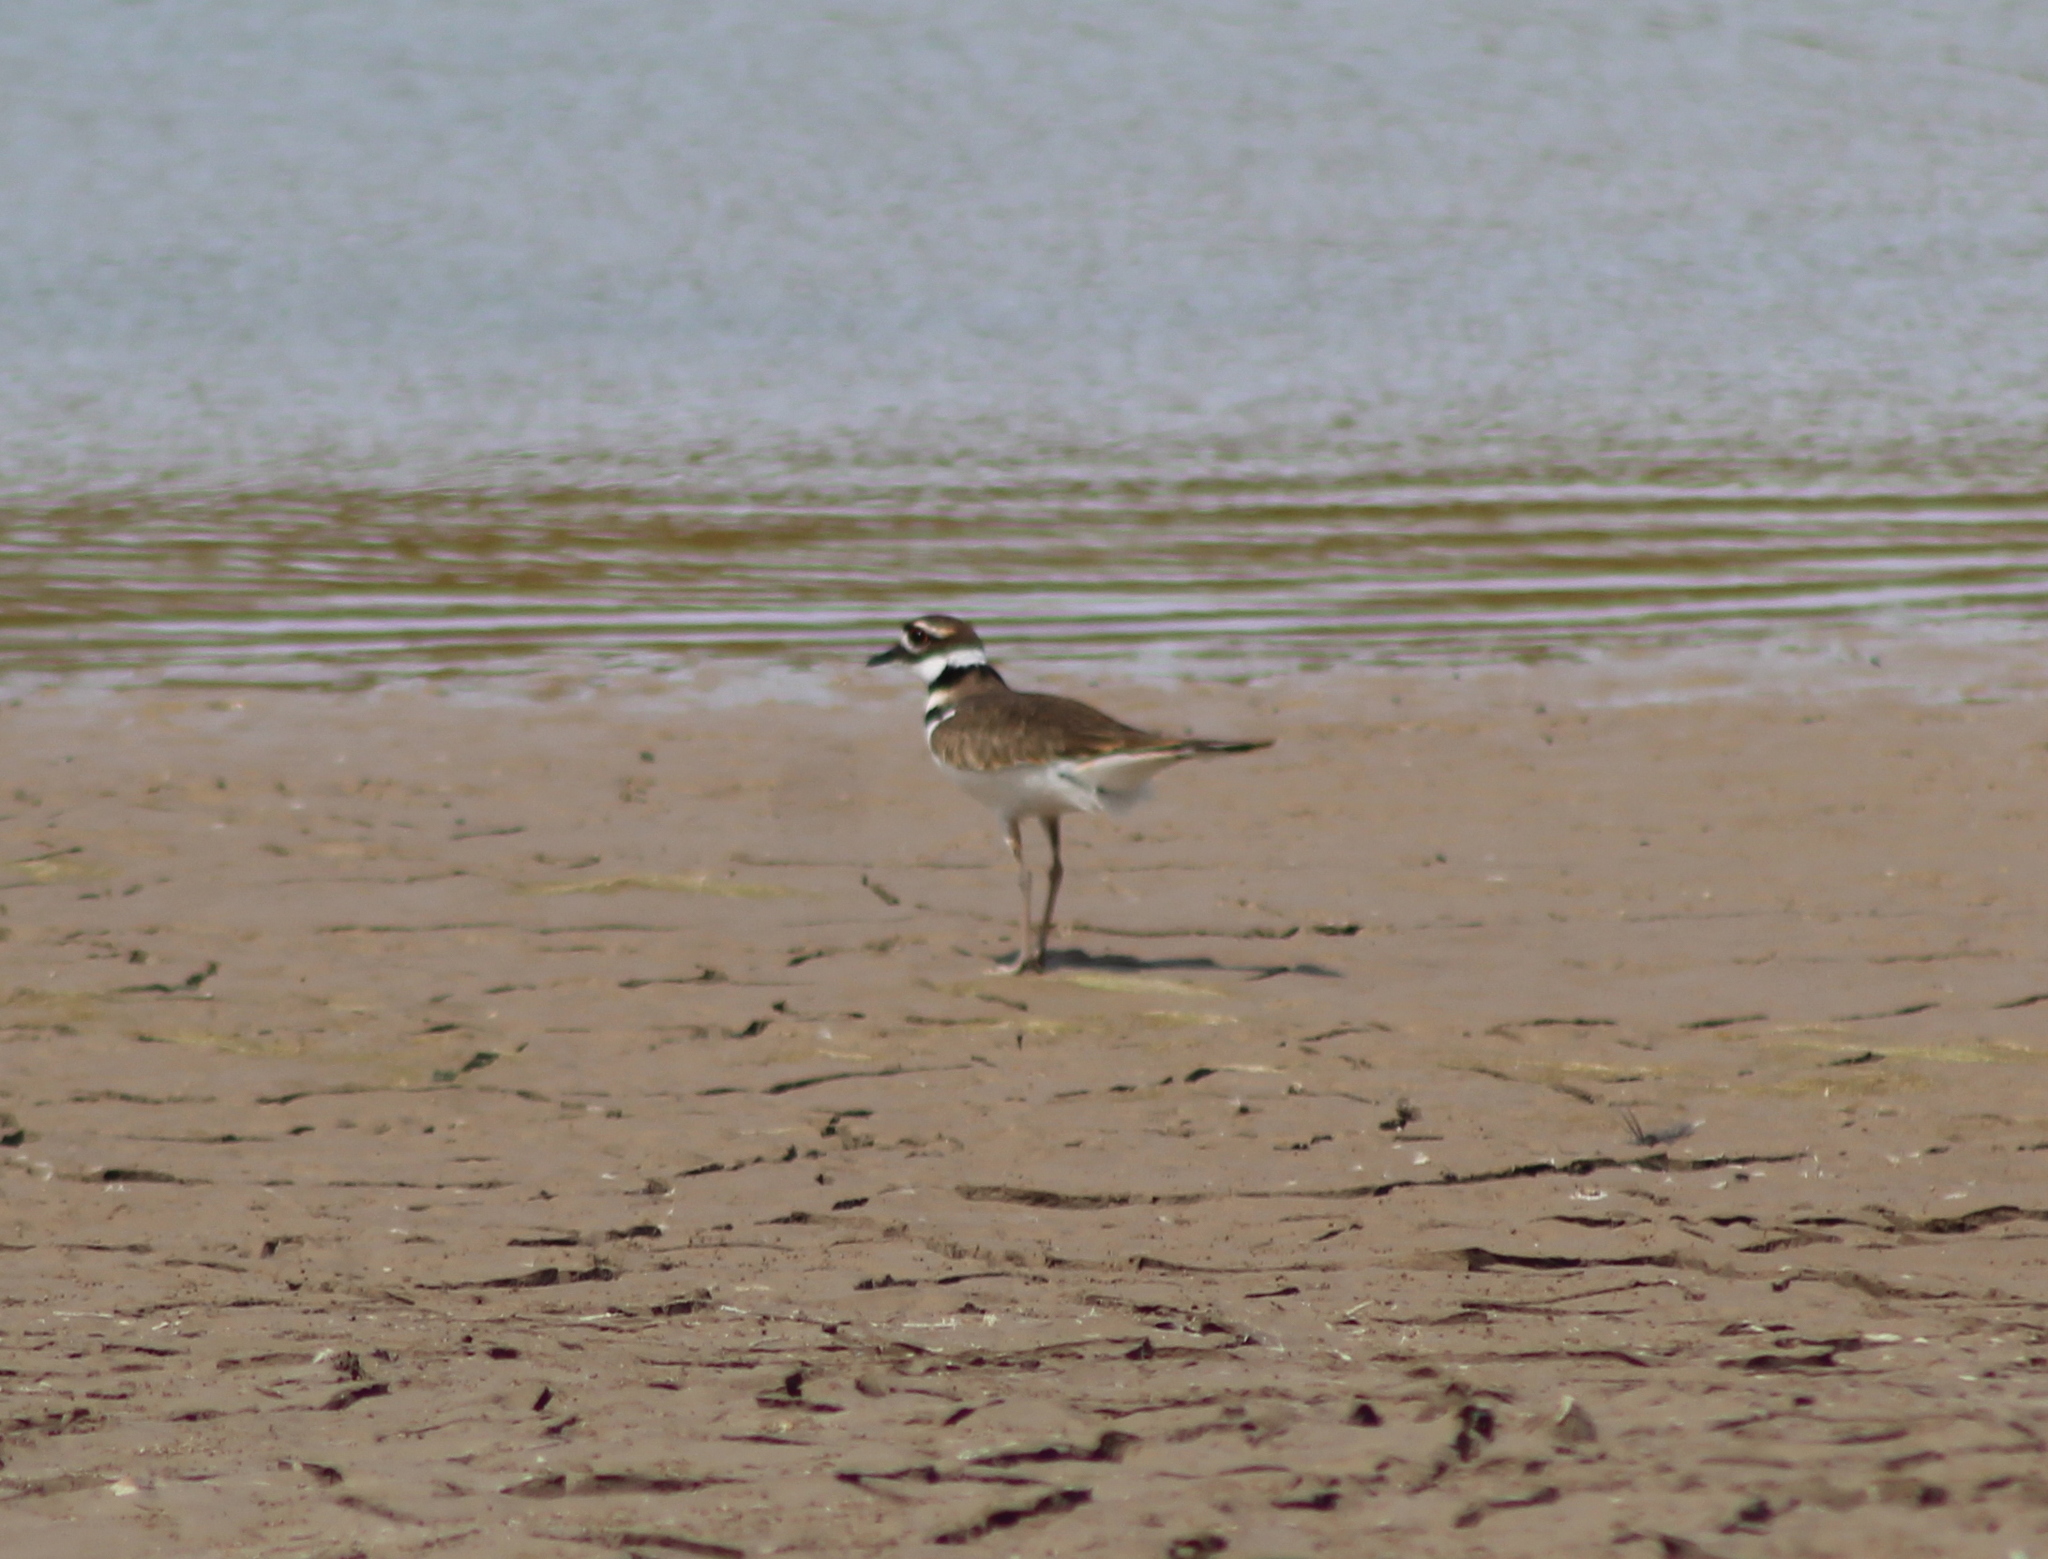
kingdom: Animalia
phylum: Chordata
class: Aves
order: Charadriiformes
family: Charadriidae
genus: Charadrius
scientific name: Charadrius vociferus
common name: Killdeer
